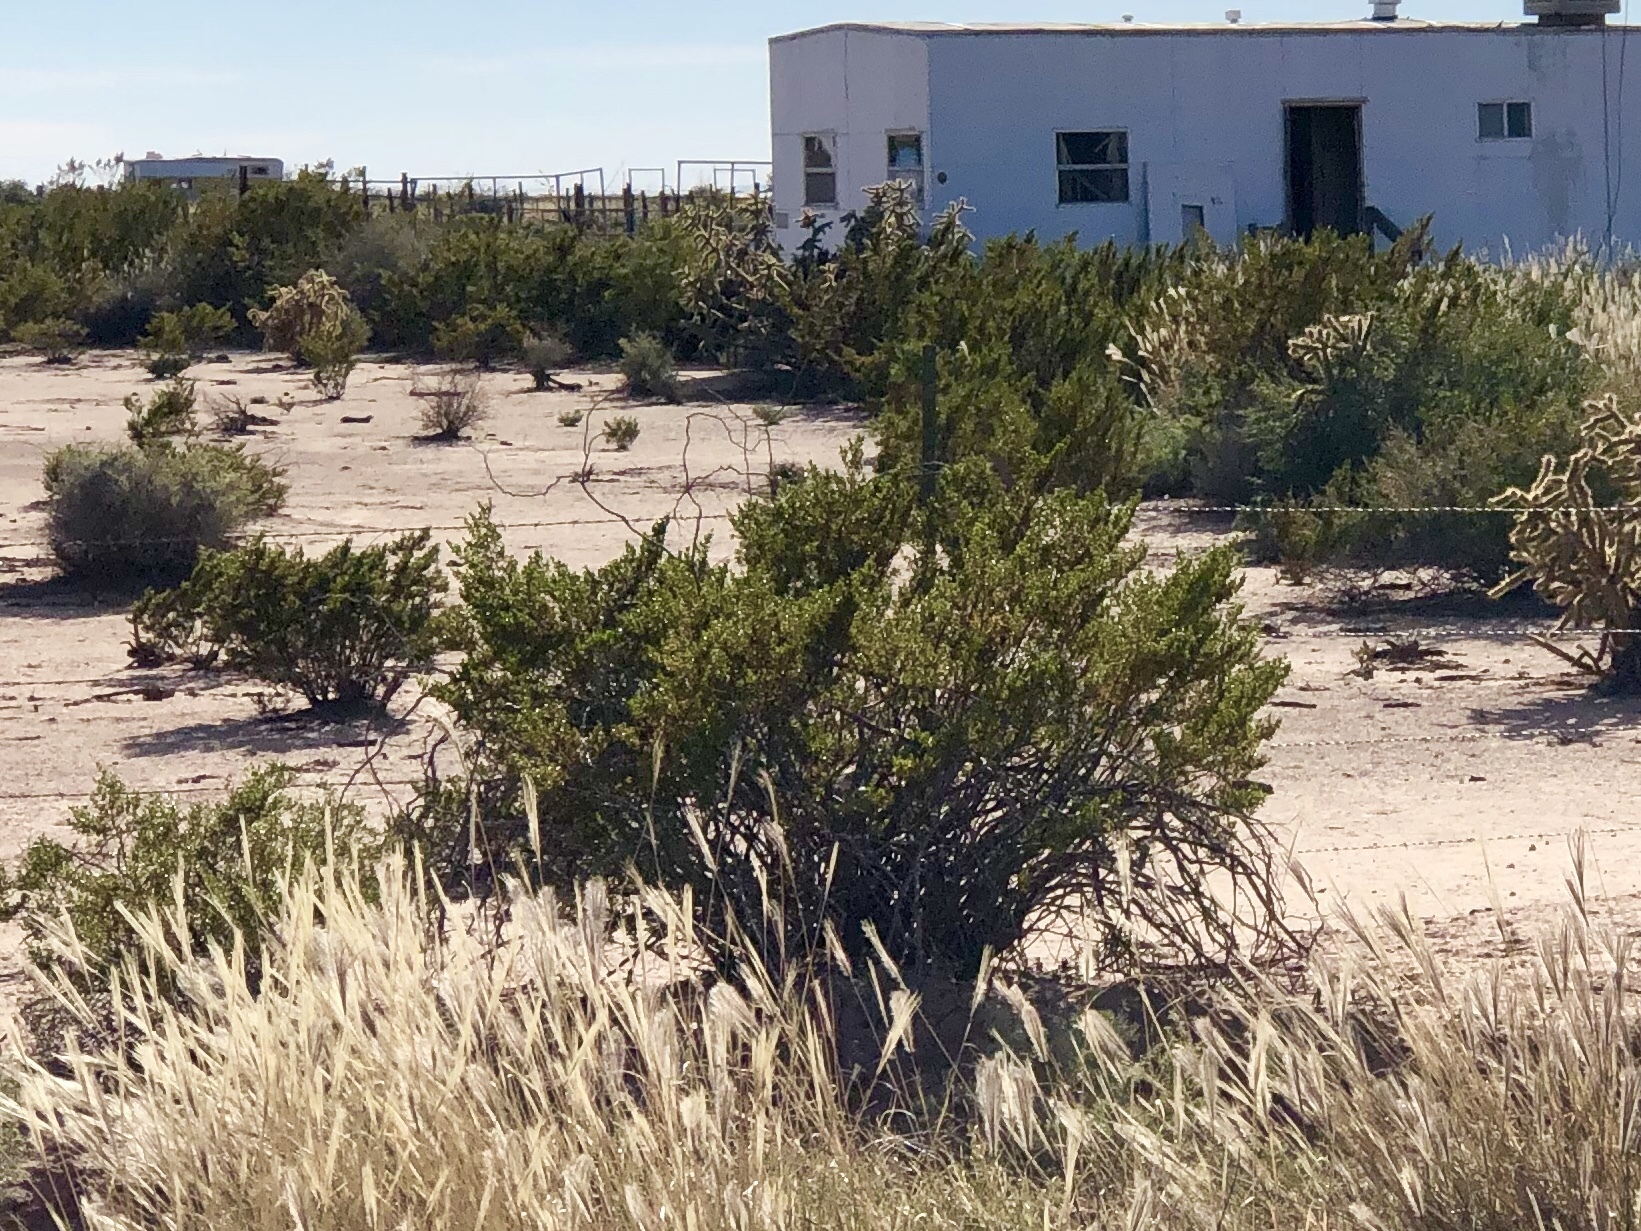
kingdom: Plantae
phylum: Tracheophyta
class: Magnoliopsida
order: Zygophyllales
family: Zygophyllaceae
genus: Larrea
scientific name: Larrea tridentata
